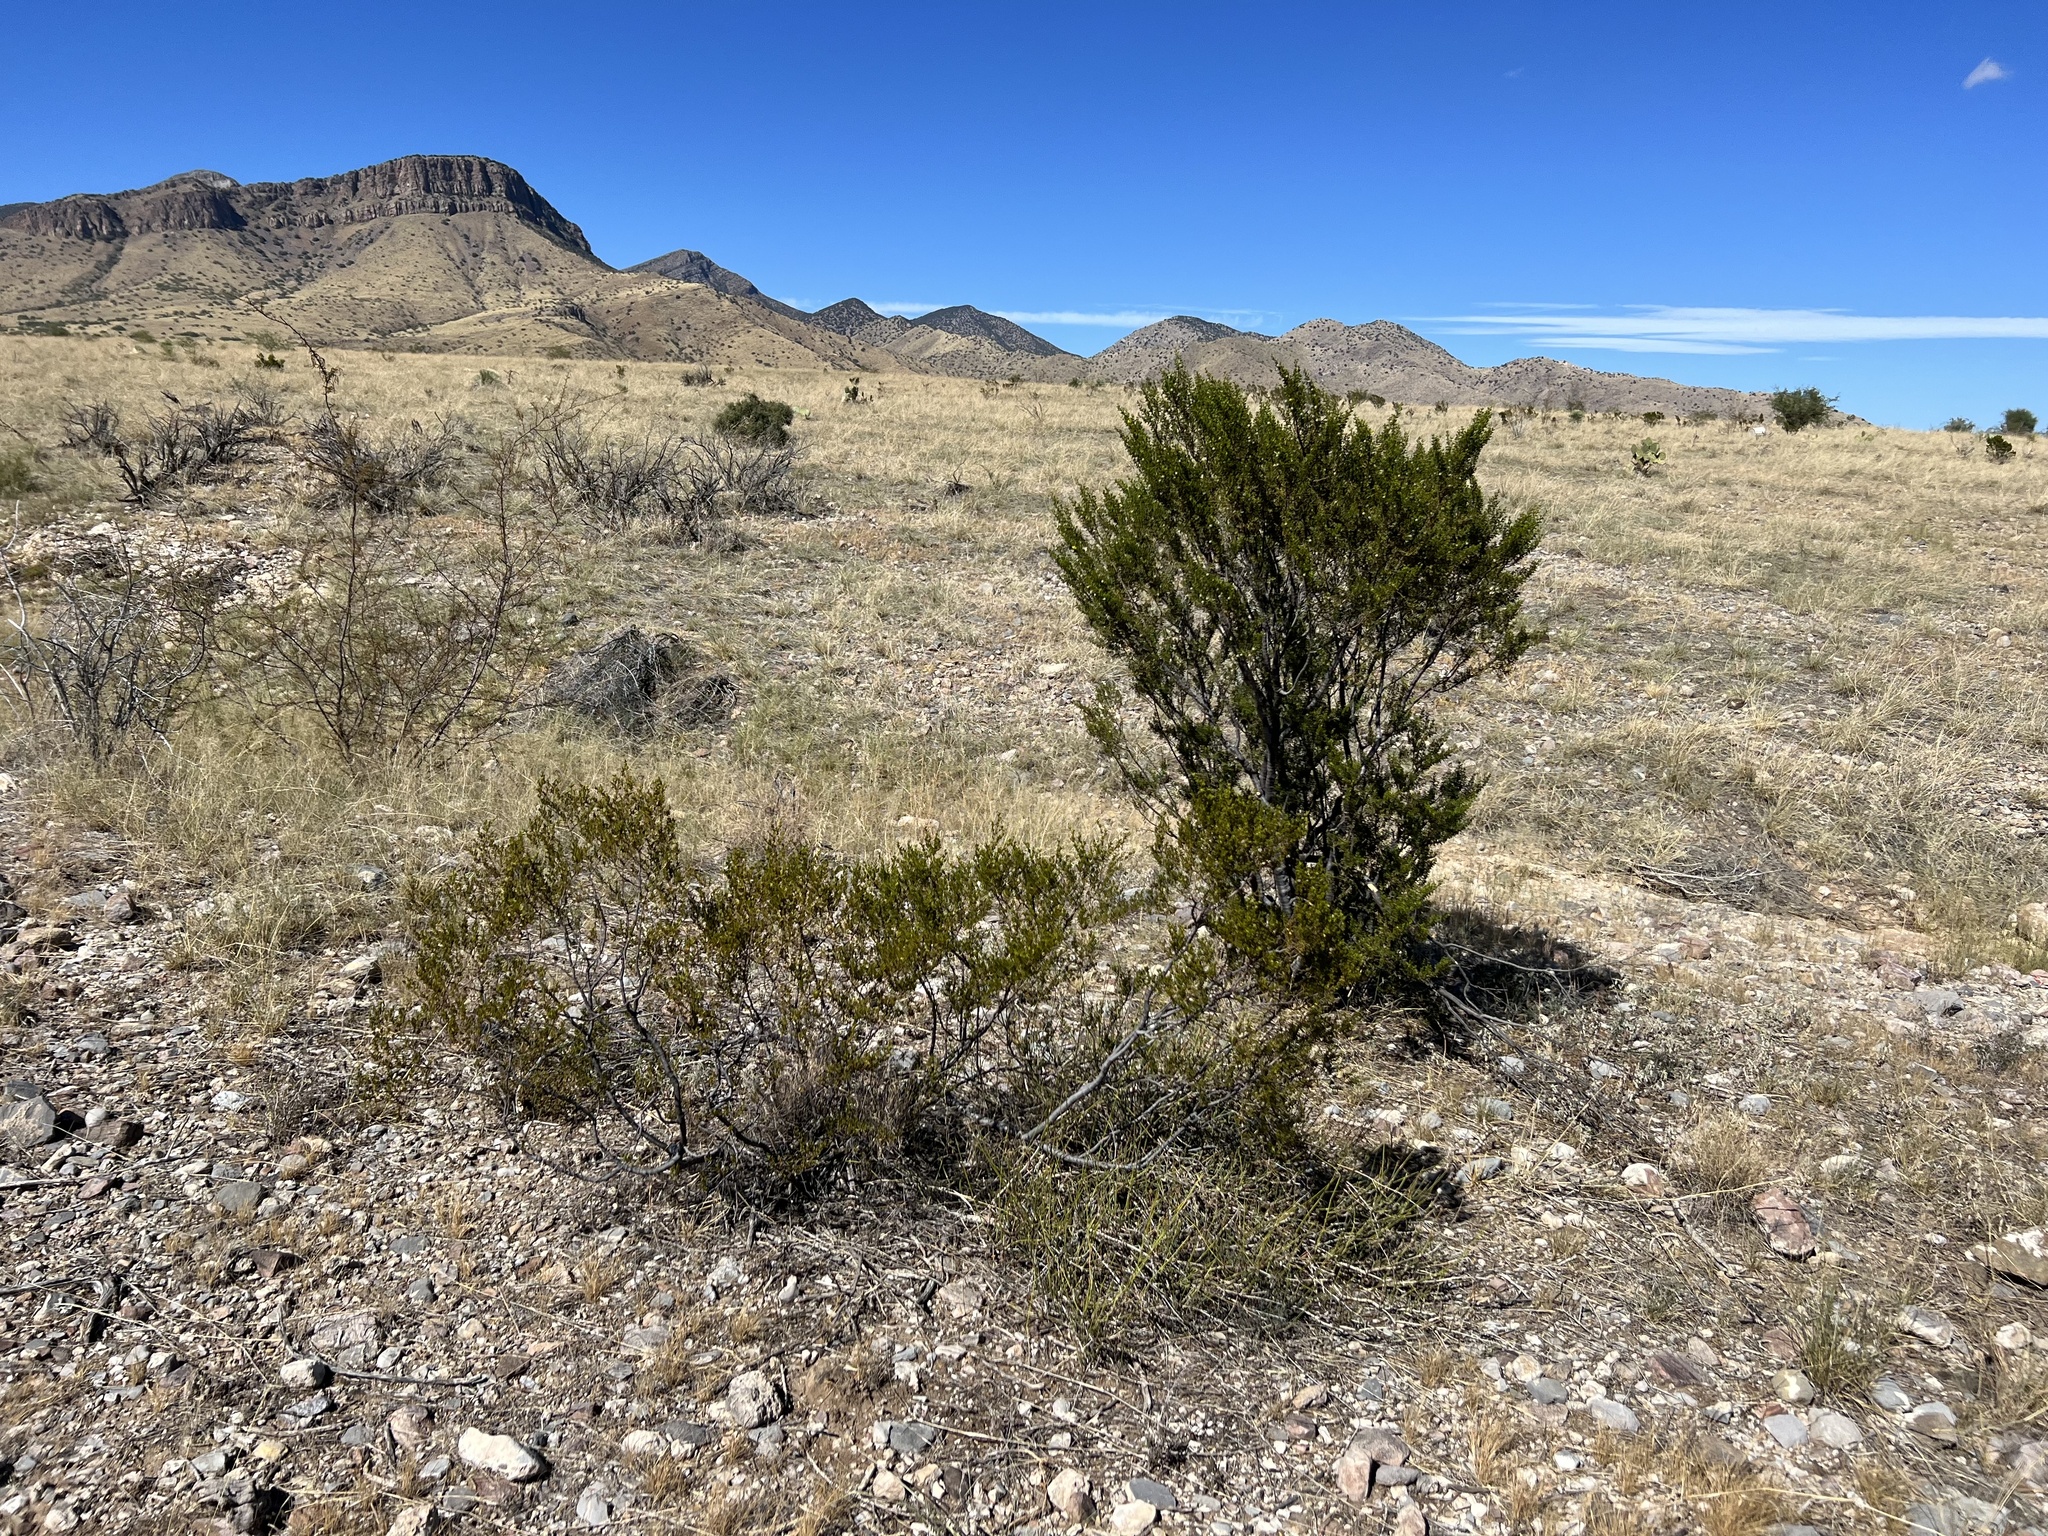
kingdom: Plantae
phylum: Tracheophyta
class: Magnoliopsida
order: Zygophyllales
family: Zygophyllaceae
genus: Larrea
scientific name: Larrea tridentata
